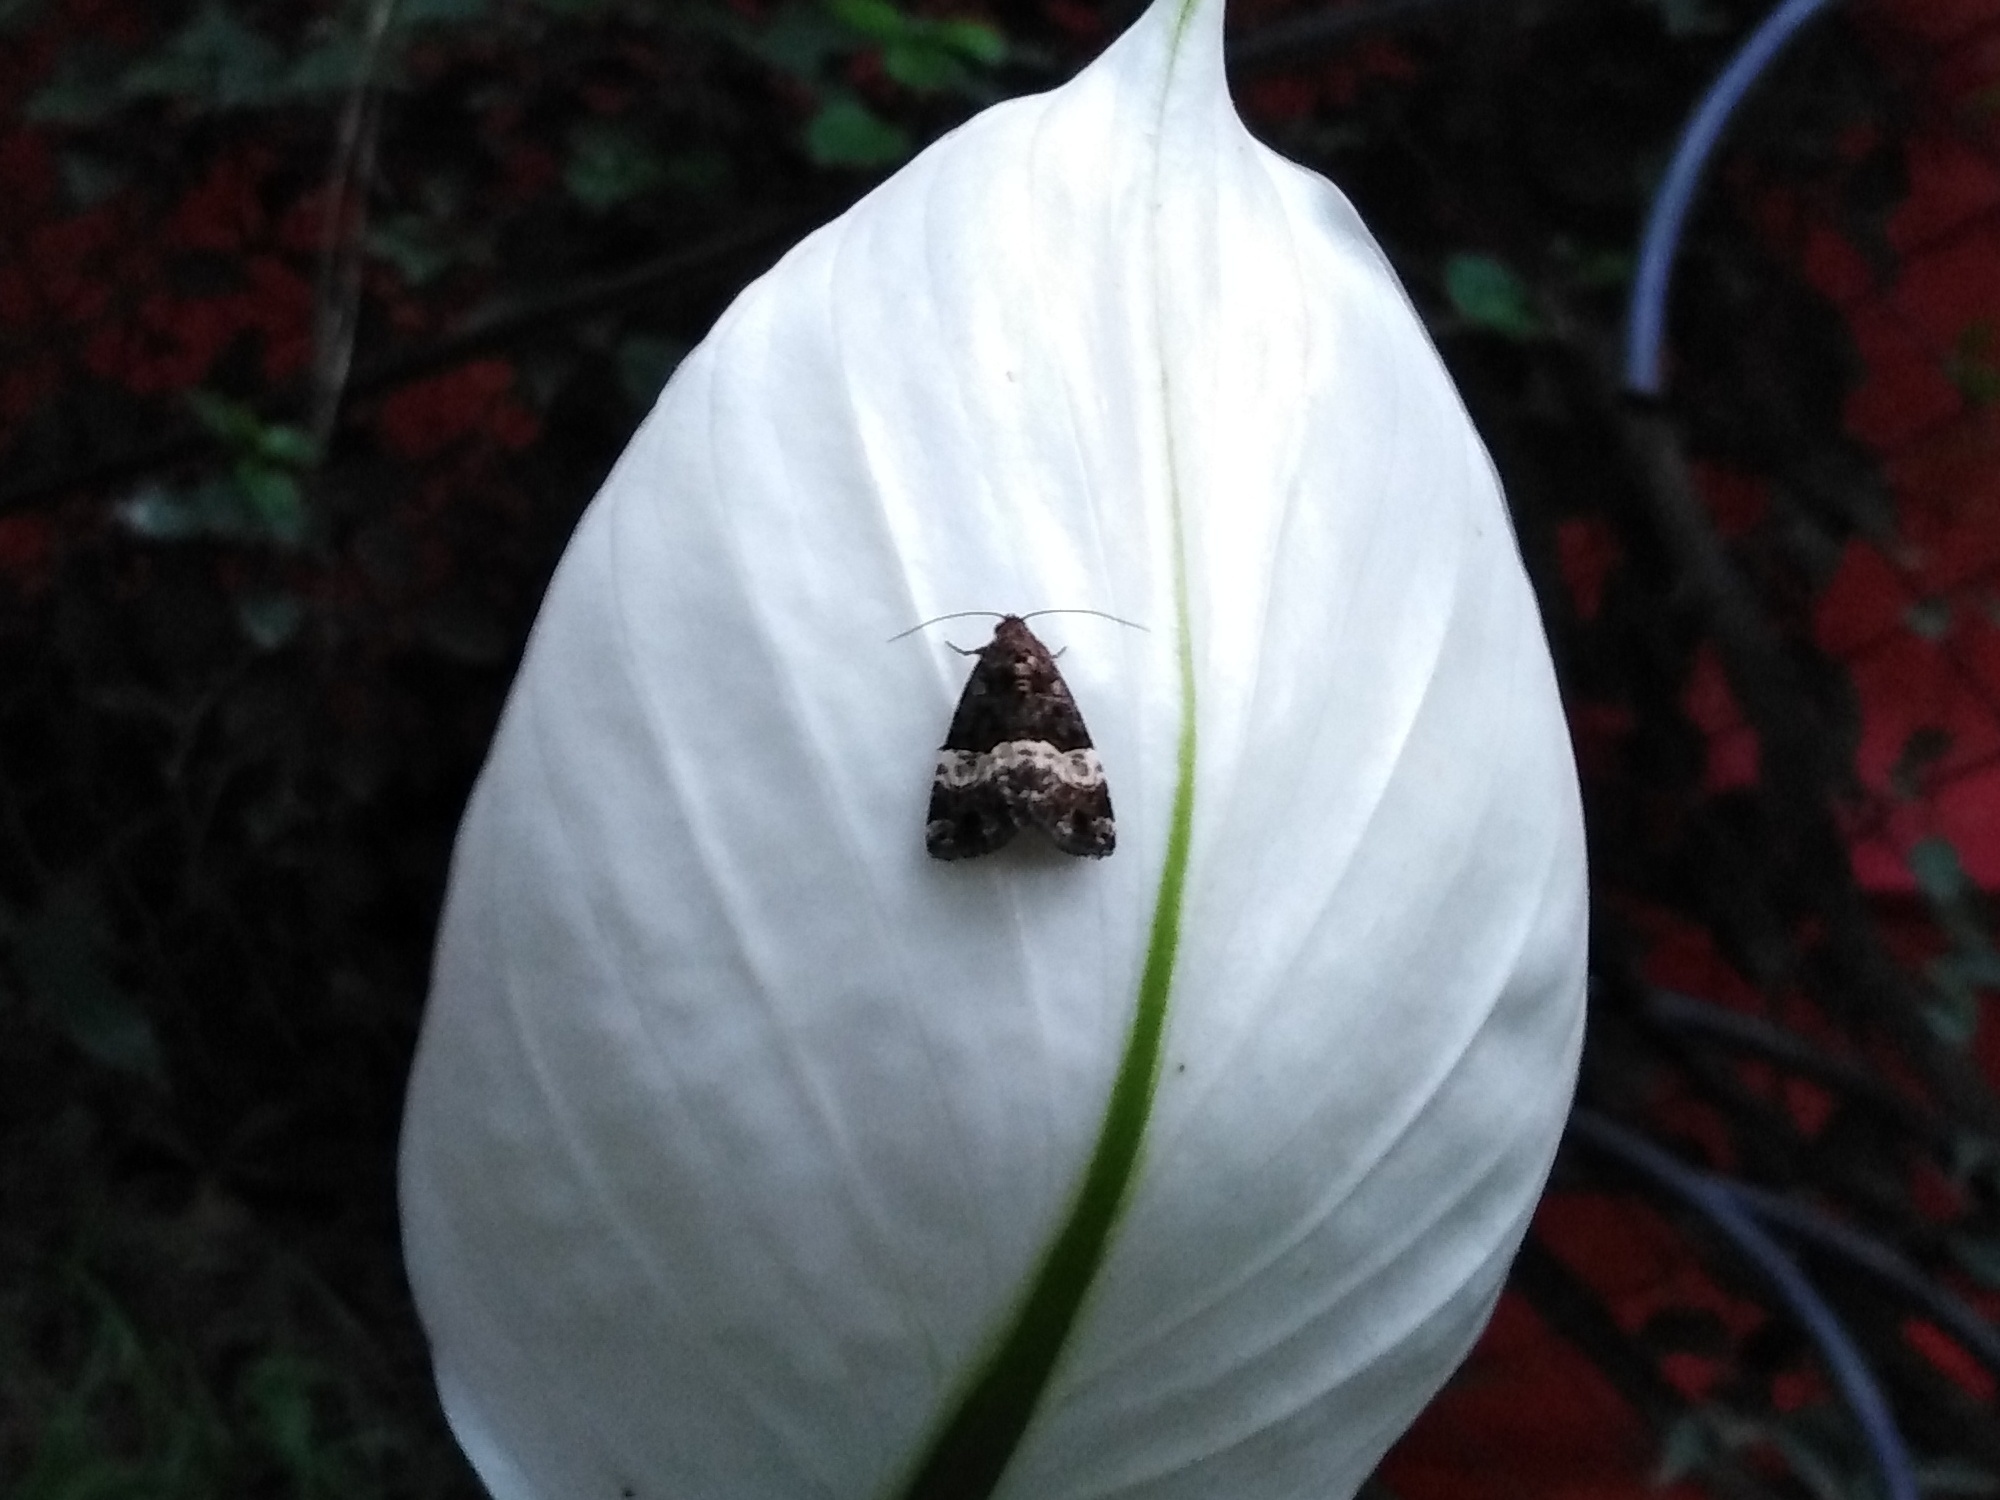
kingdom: Animalia
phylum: Arthropoda
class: Insecta
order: Lepidoptera
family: Noctuidae
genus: Eustrotia
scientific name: Eustrotia decissima
